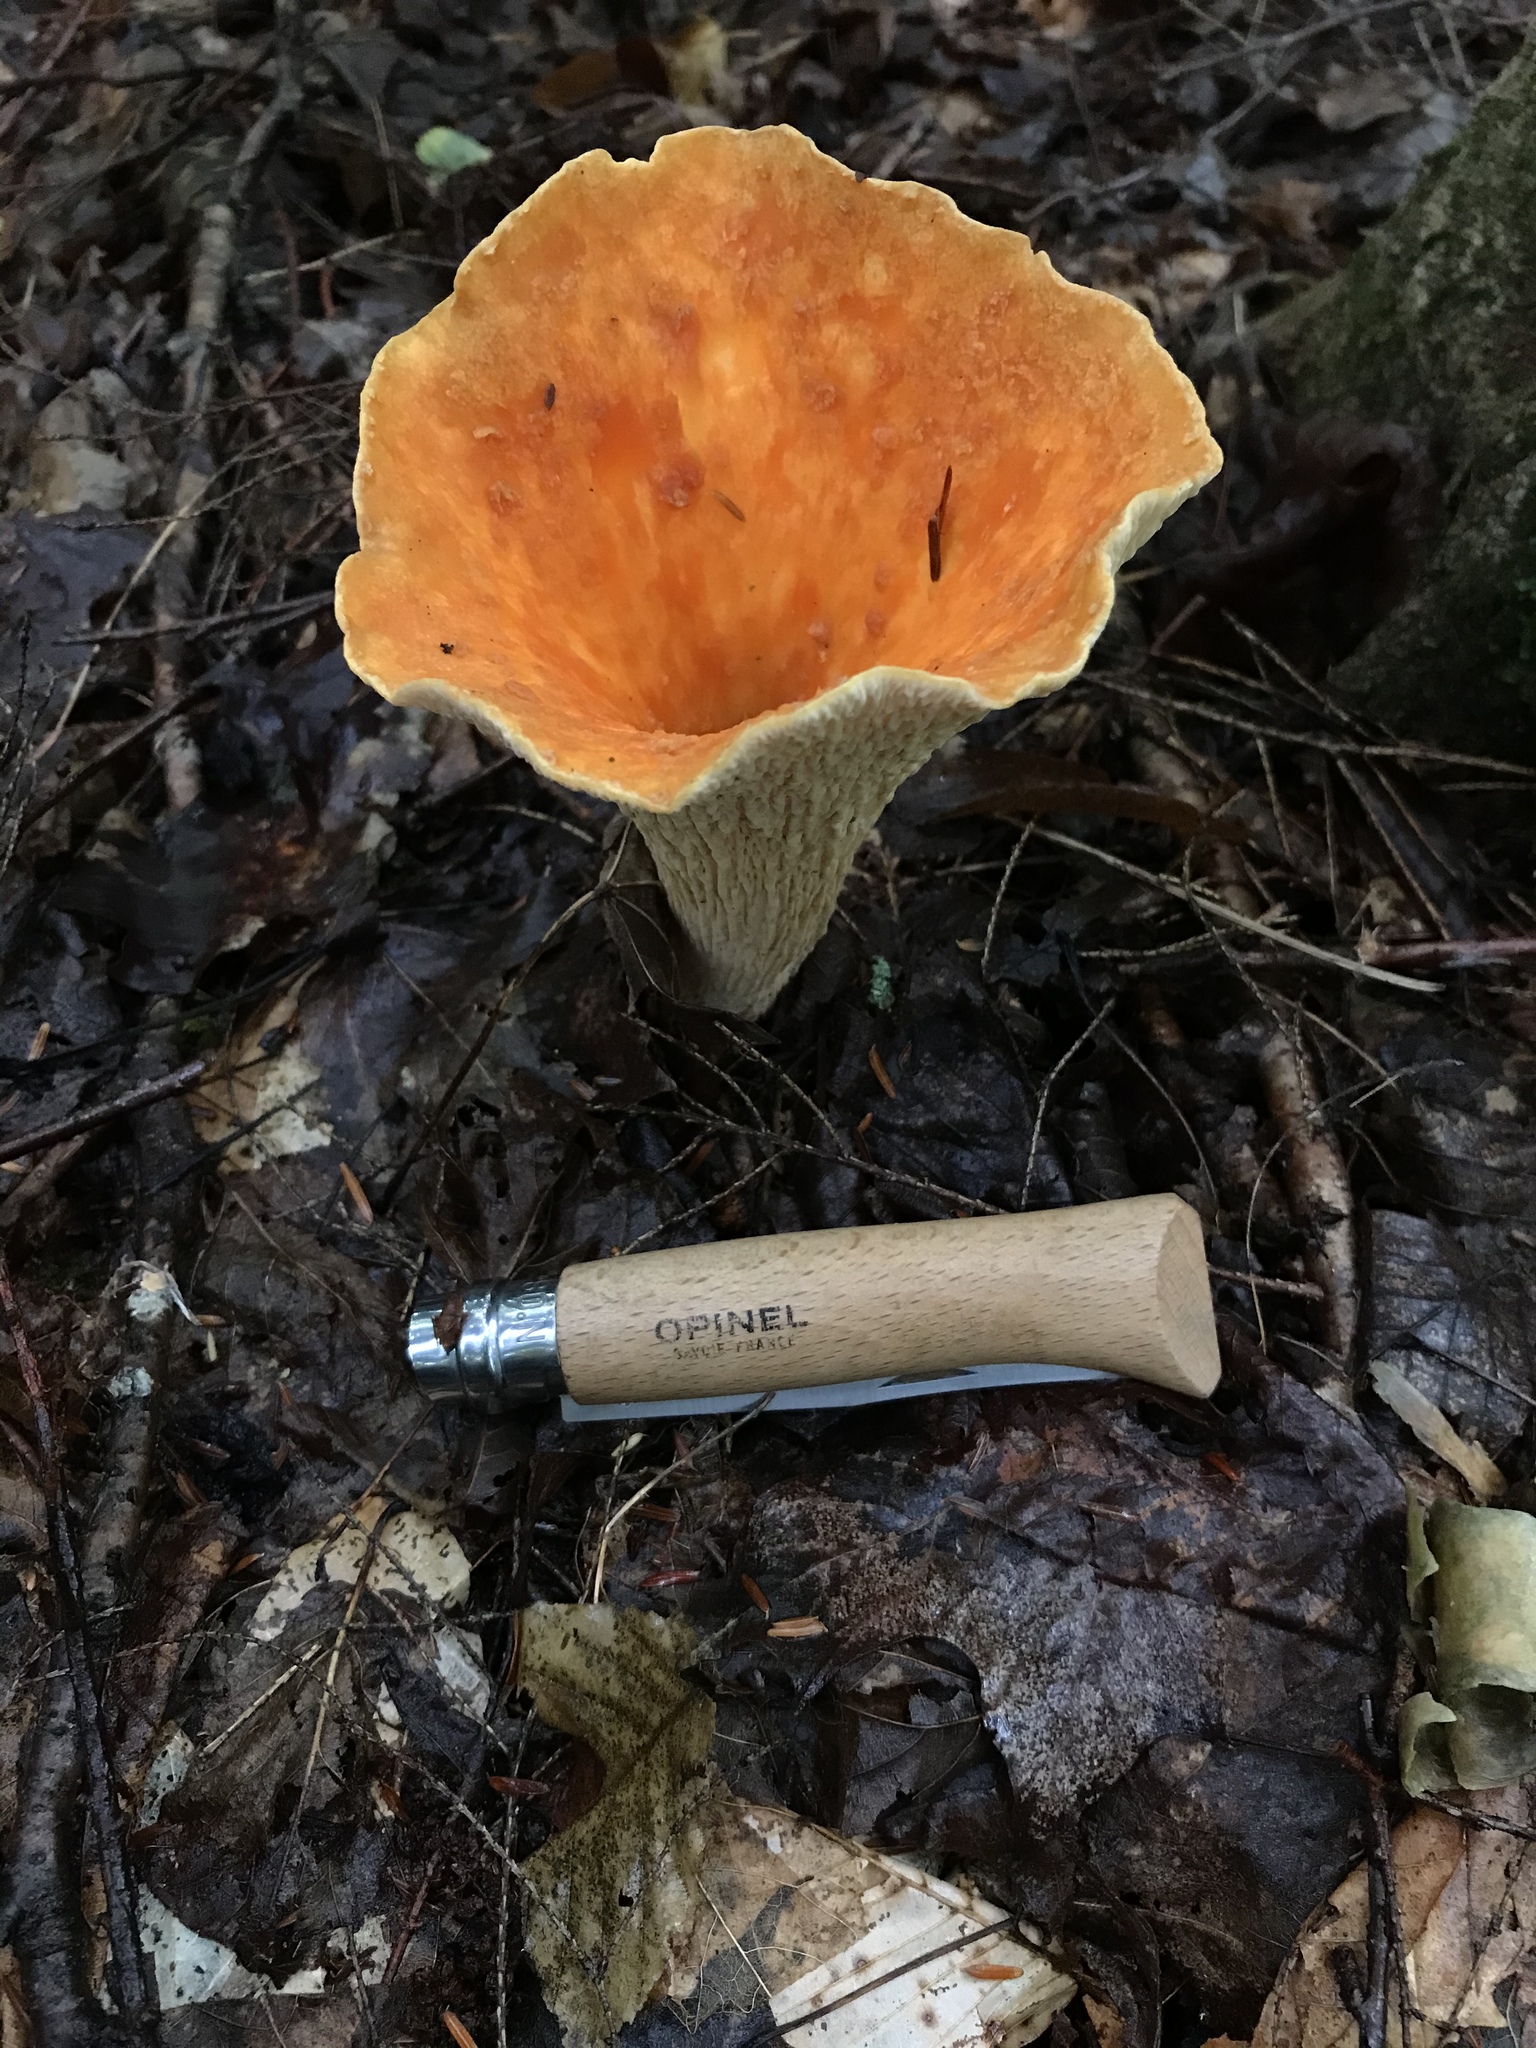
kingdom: Fungi
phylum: Basidiomycota
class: Agaricomycetes
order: Gomphales
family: Gomphaceae
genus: Turbinellus
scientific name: Turbinellus floccosus
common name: Scaly chanterelle
